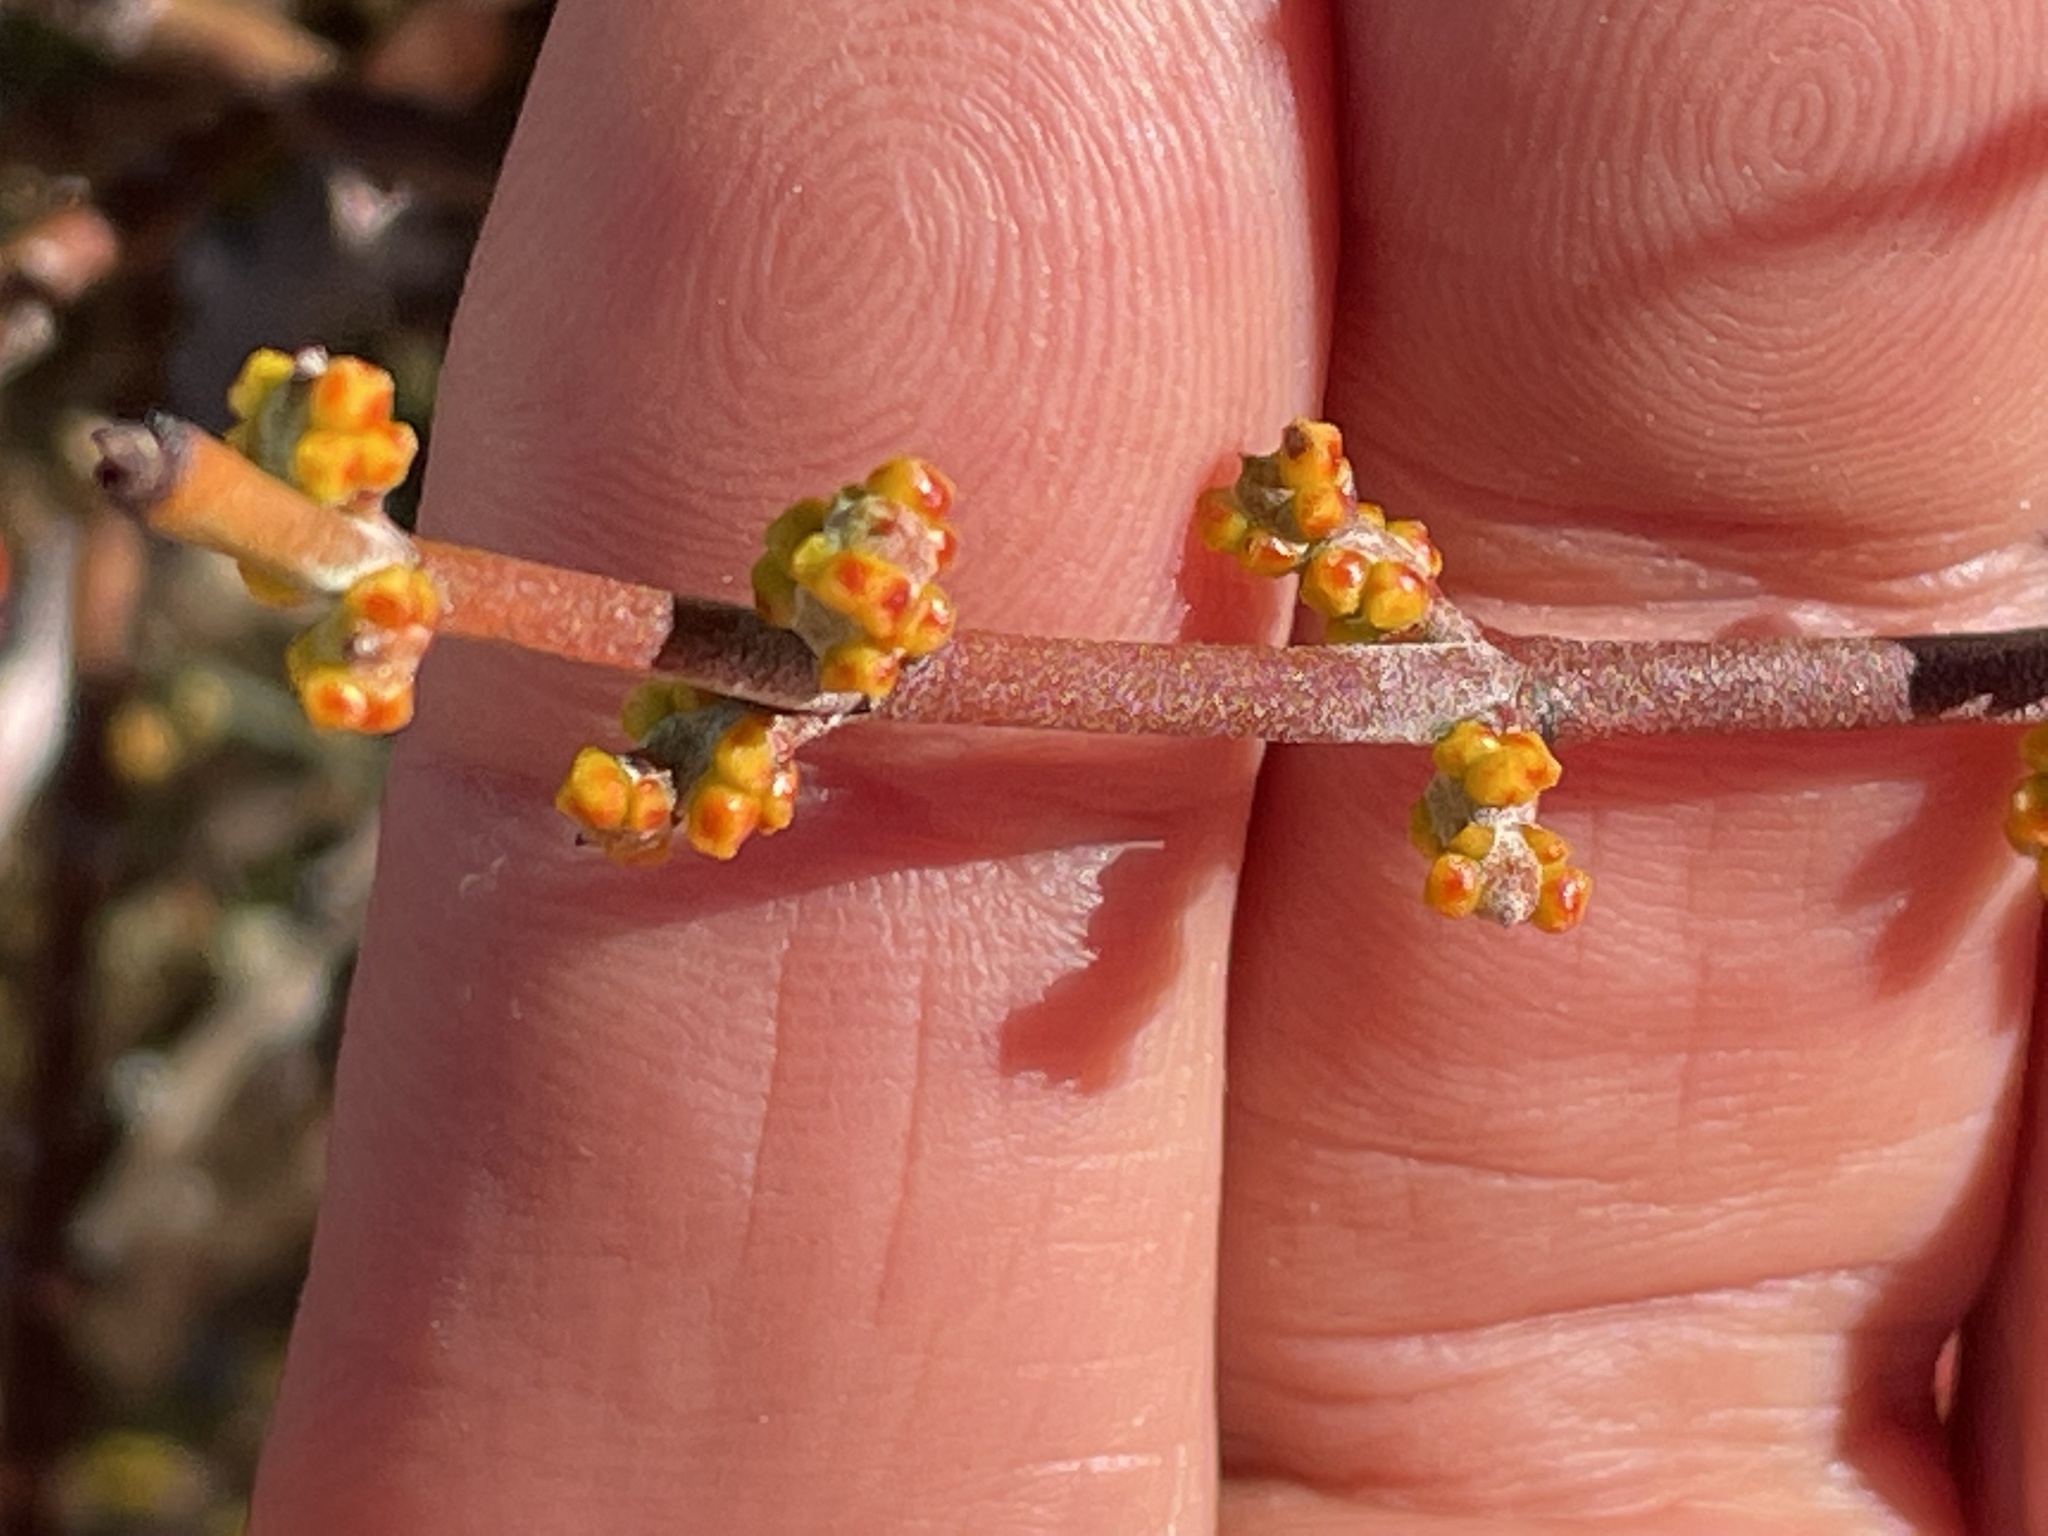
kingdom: Plantae
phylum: Tracheophyta
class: Magnoliopsida
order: Santalales
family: Viscaceae
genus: Phoradendron
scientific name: Phoradendron californicum
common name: Acacia mistletoe
